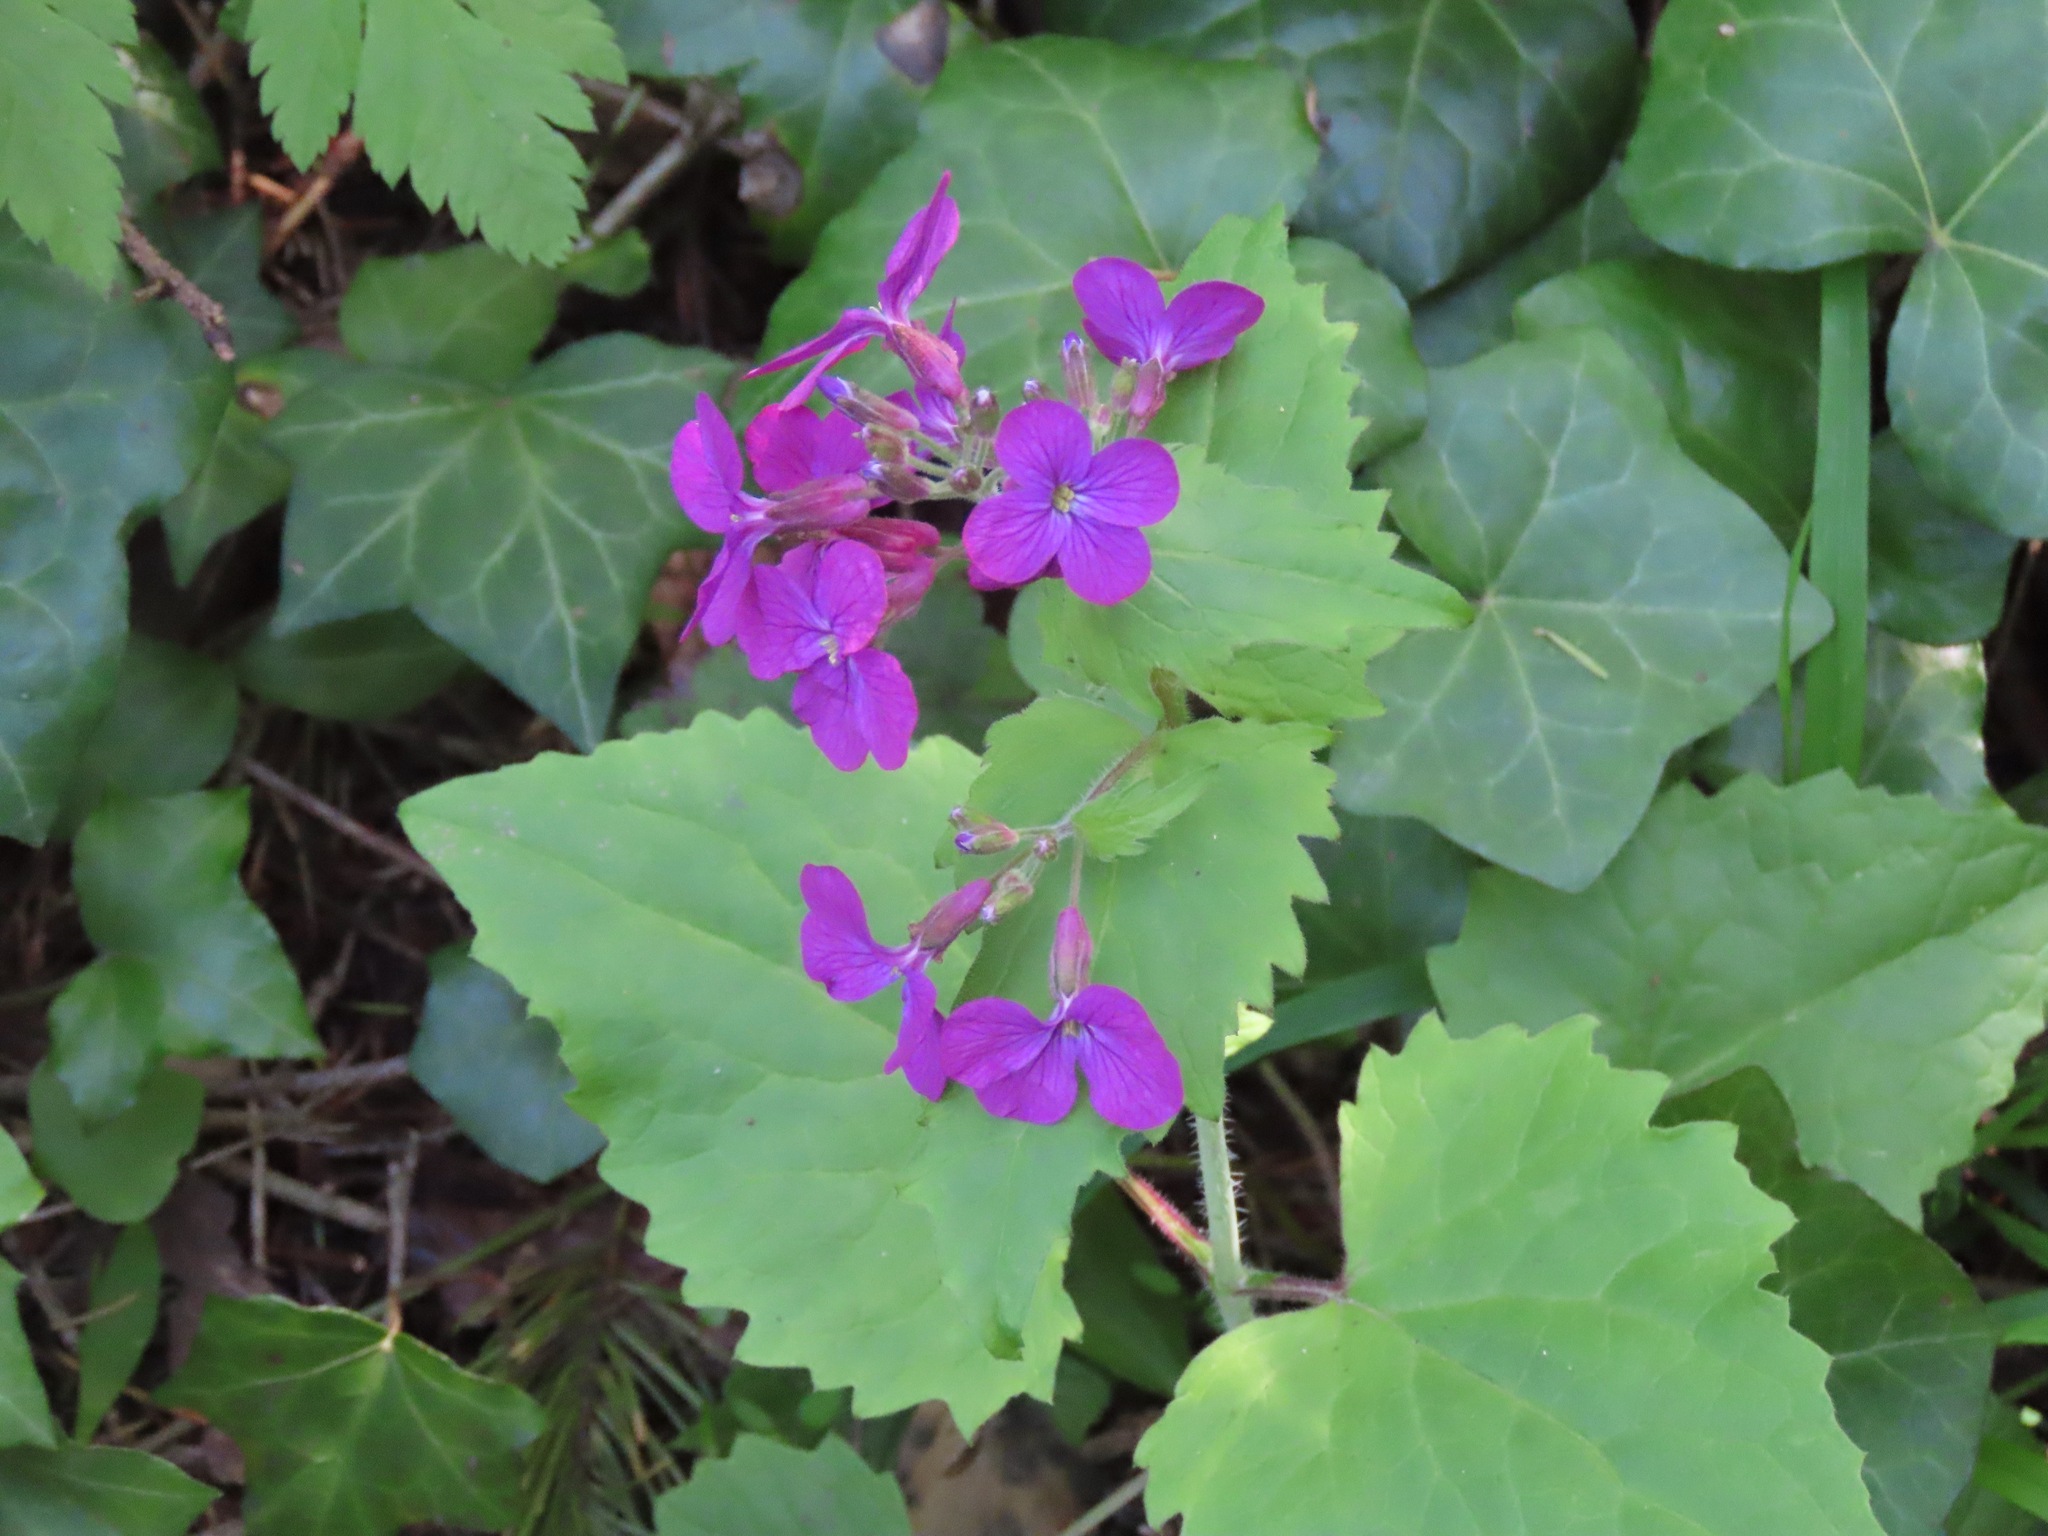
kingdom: Plantae
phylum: Tracheophyta
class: Magnoliopsida
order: Brassicales
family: Brassicaceae
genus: Lunaria
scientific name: Lunaria annua
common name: Honesty
